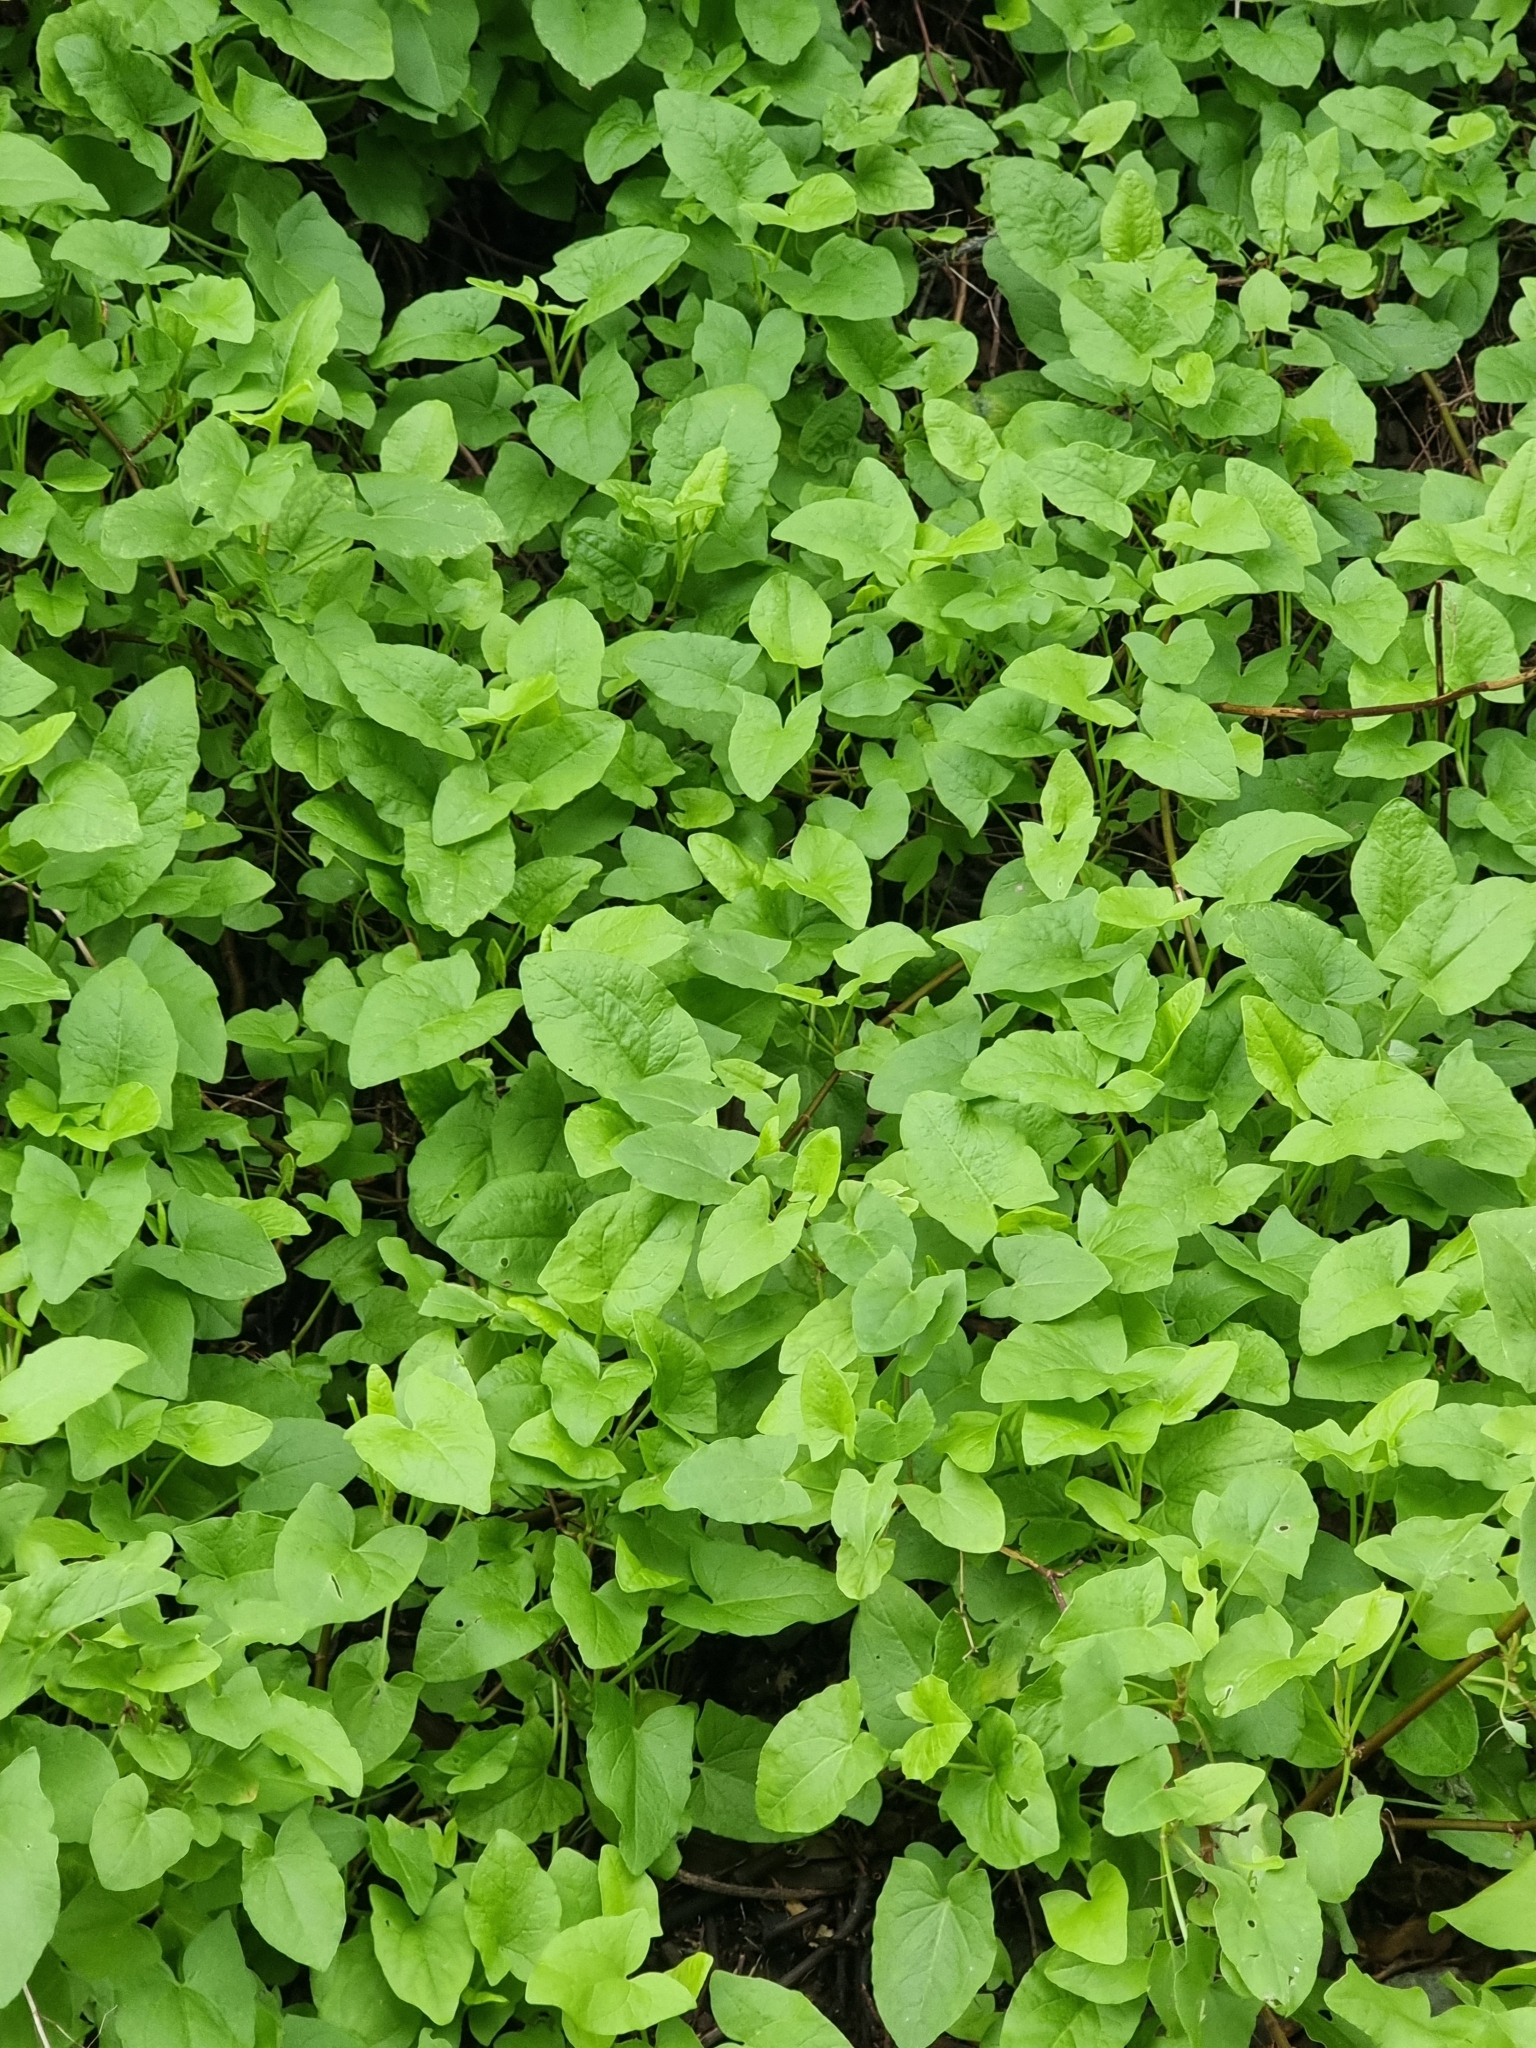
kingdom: Plantae
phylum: Tracheophyta
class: Magnoliopsida
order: Caryophyllales
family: Polygonaceae
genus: Rumex
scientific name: Rumex maderensis
